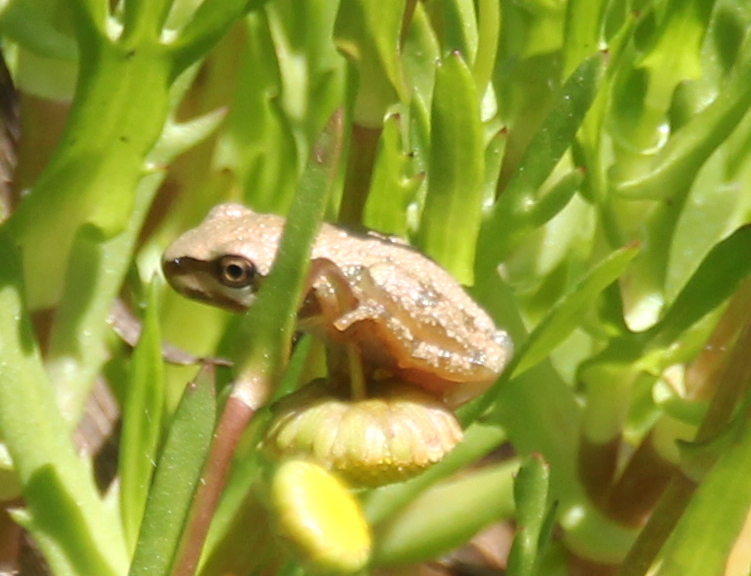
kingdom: Animalia
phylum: Chordata
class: Amphibia
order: Anura
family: Hylidae
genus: Pseudacris
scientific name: Pseudacris regilla
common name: Pacific chorus frog
